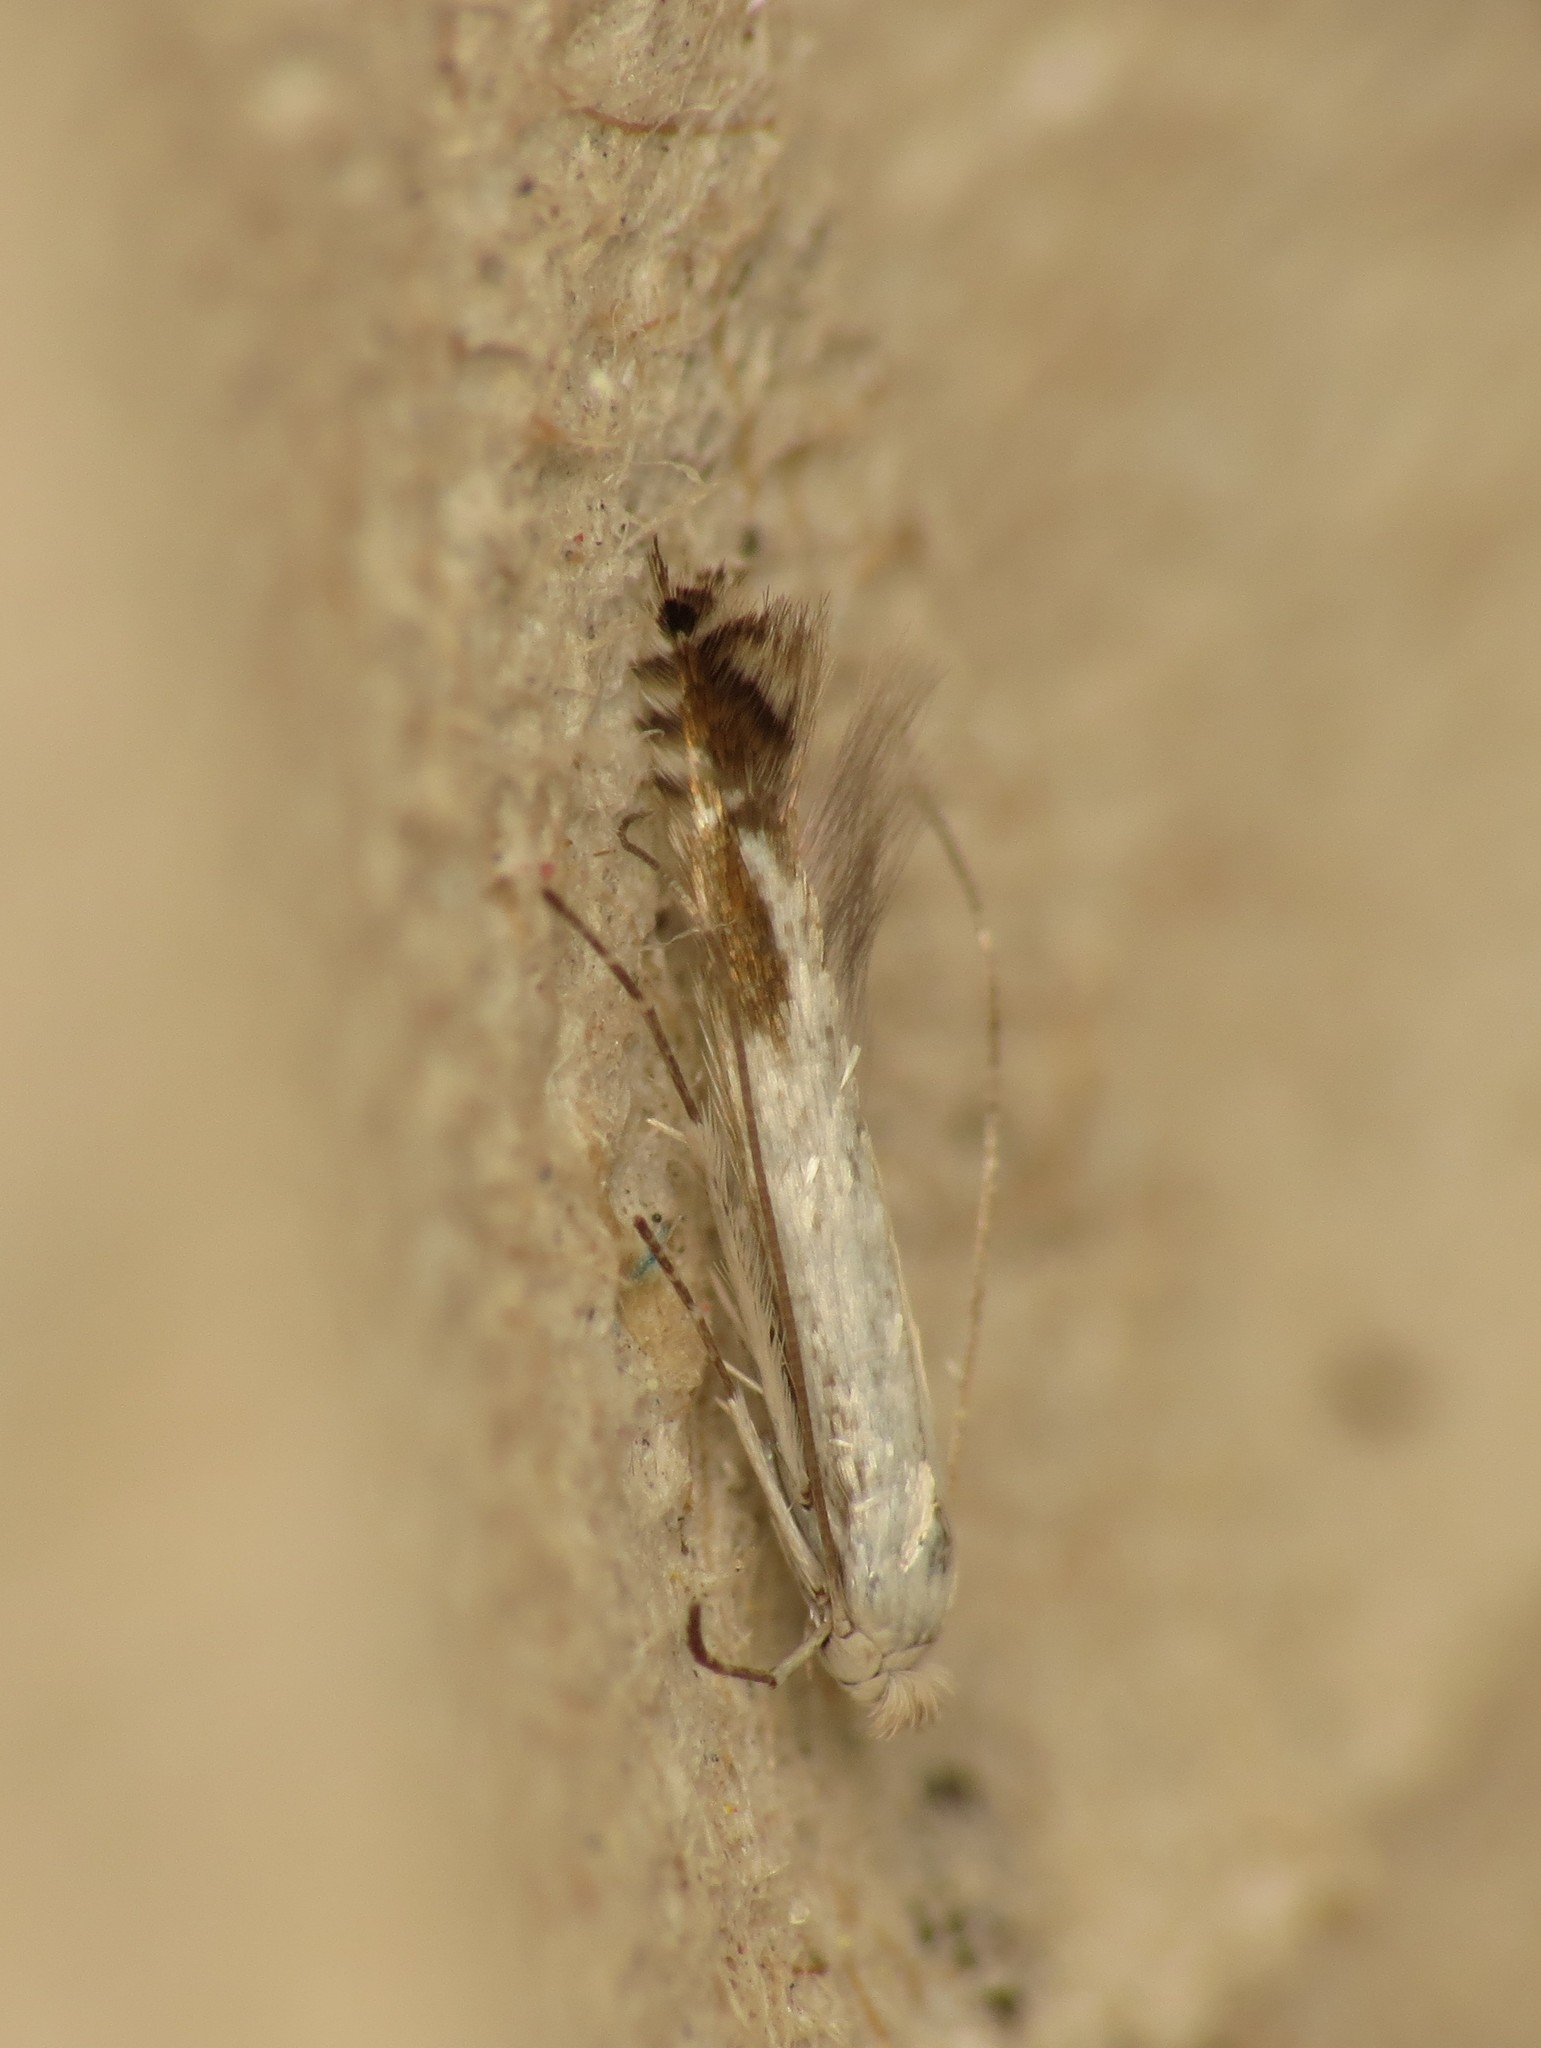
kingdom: Animalia
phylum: Arthropoda
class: Insecta
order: Lepidoptera
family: Lyonetiidae
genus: Lyonetia
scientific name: Lyonetia clerkella
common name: Apple leaf miner
